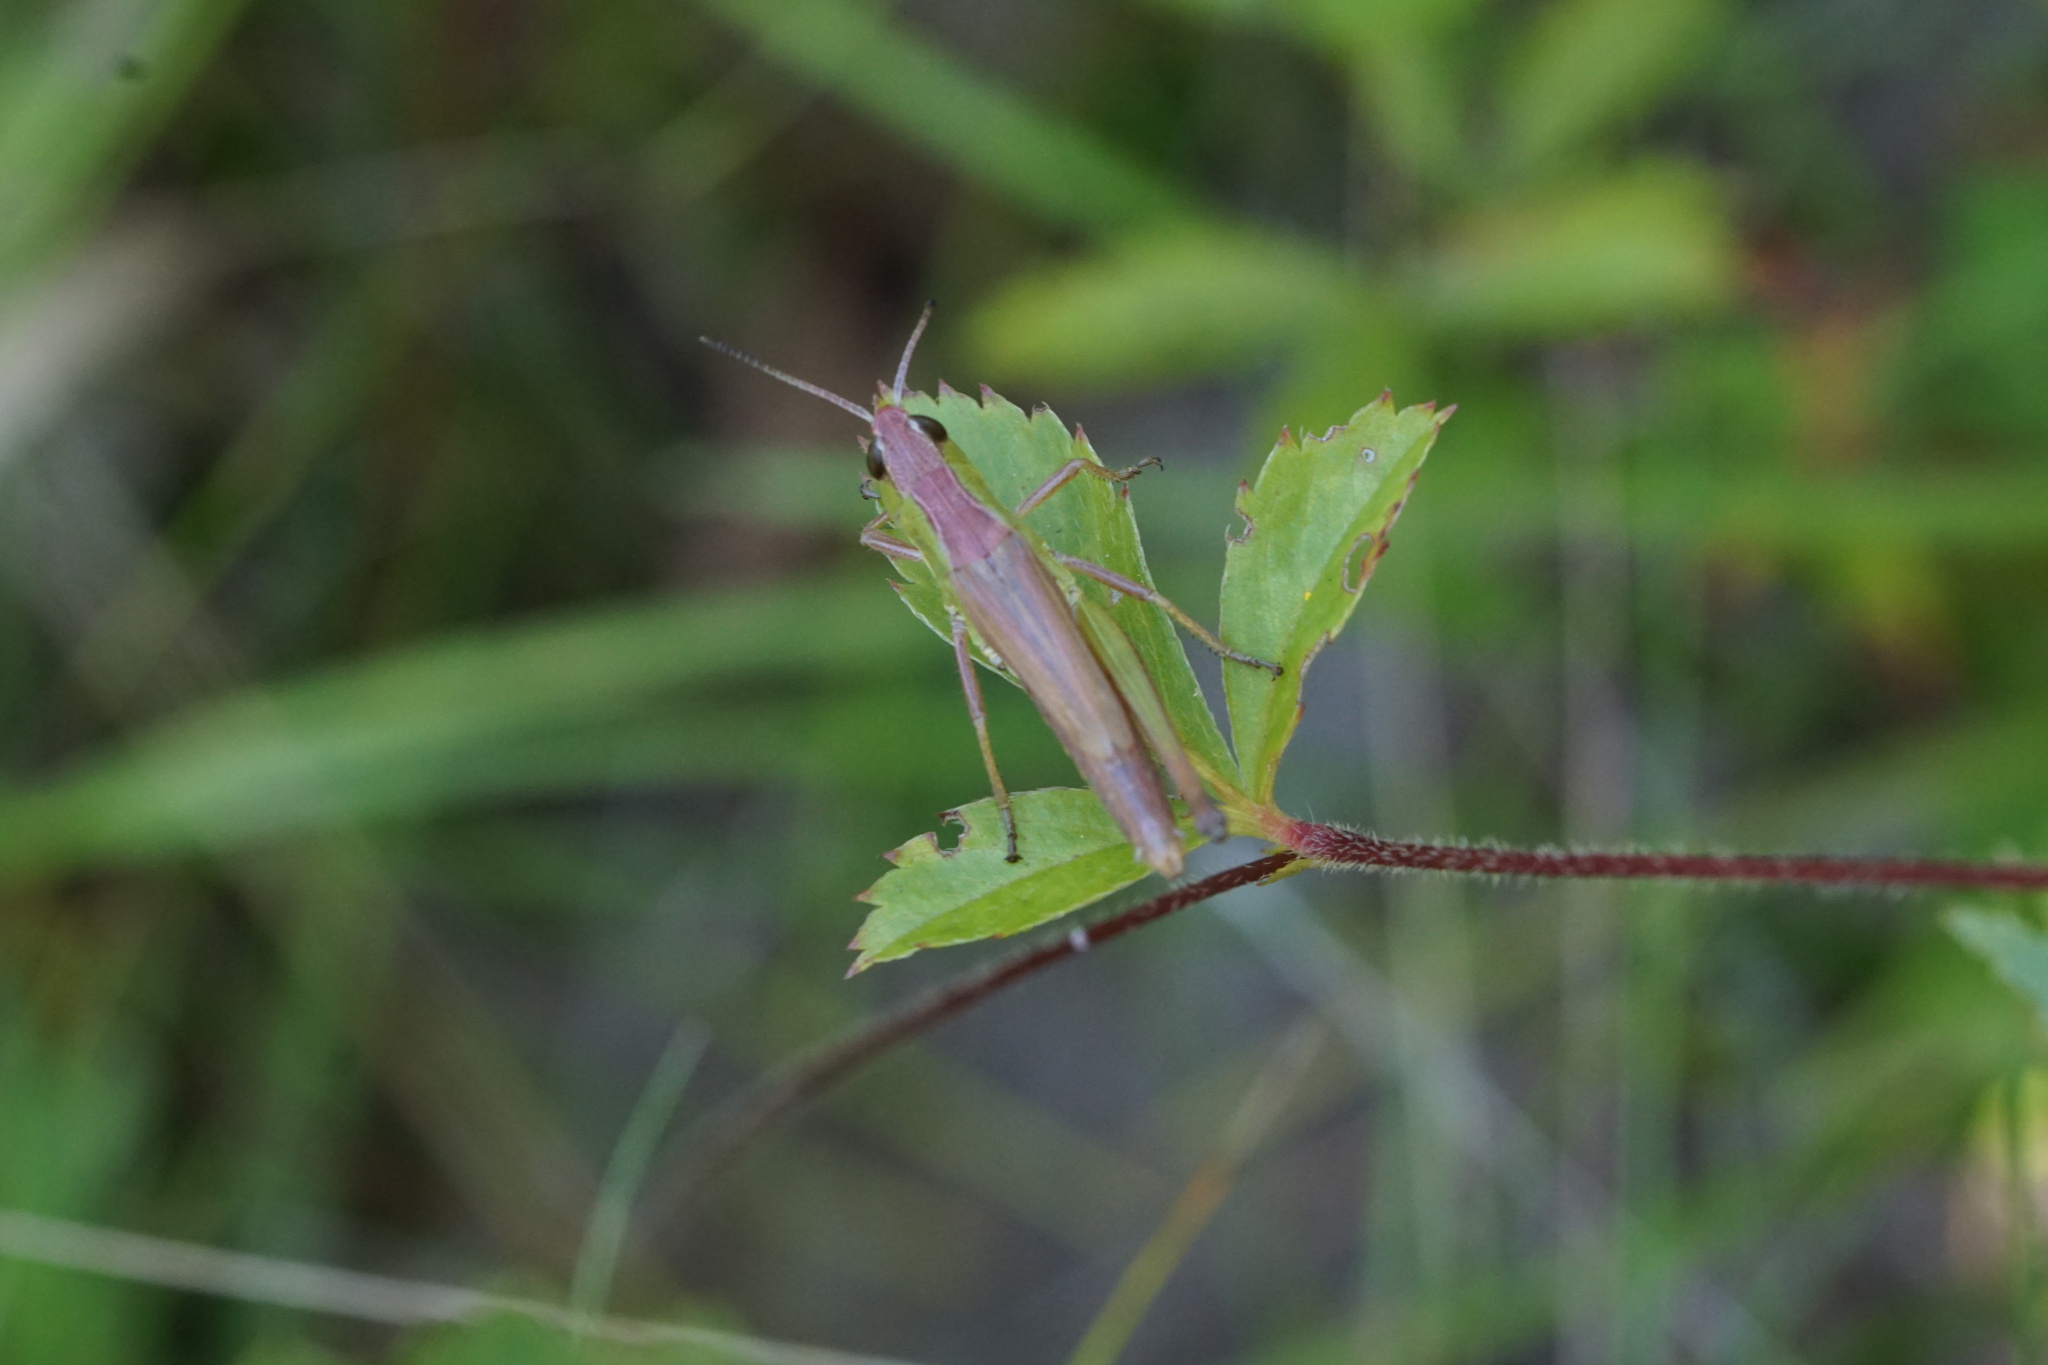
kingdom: Animalia
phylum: Arthropoda
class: Insecta
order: Orthoptera
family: Acrididae
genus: Pseudochorthippus
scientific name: Pseudochorthippus curtipennis
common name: Marsh meadow grasshopper
